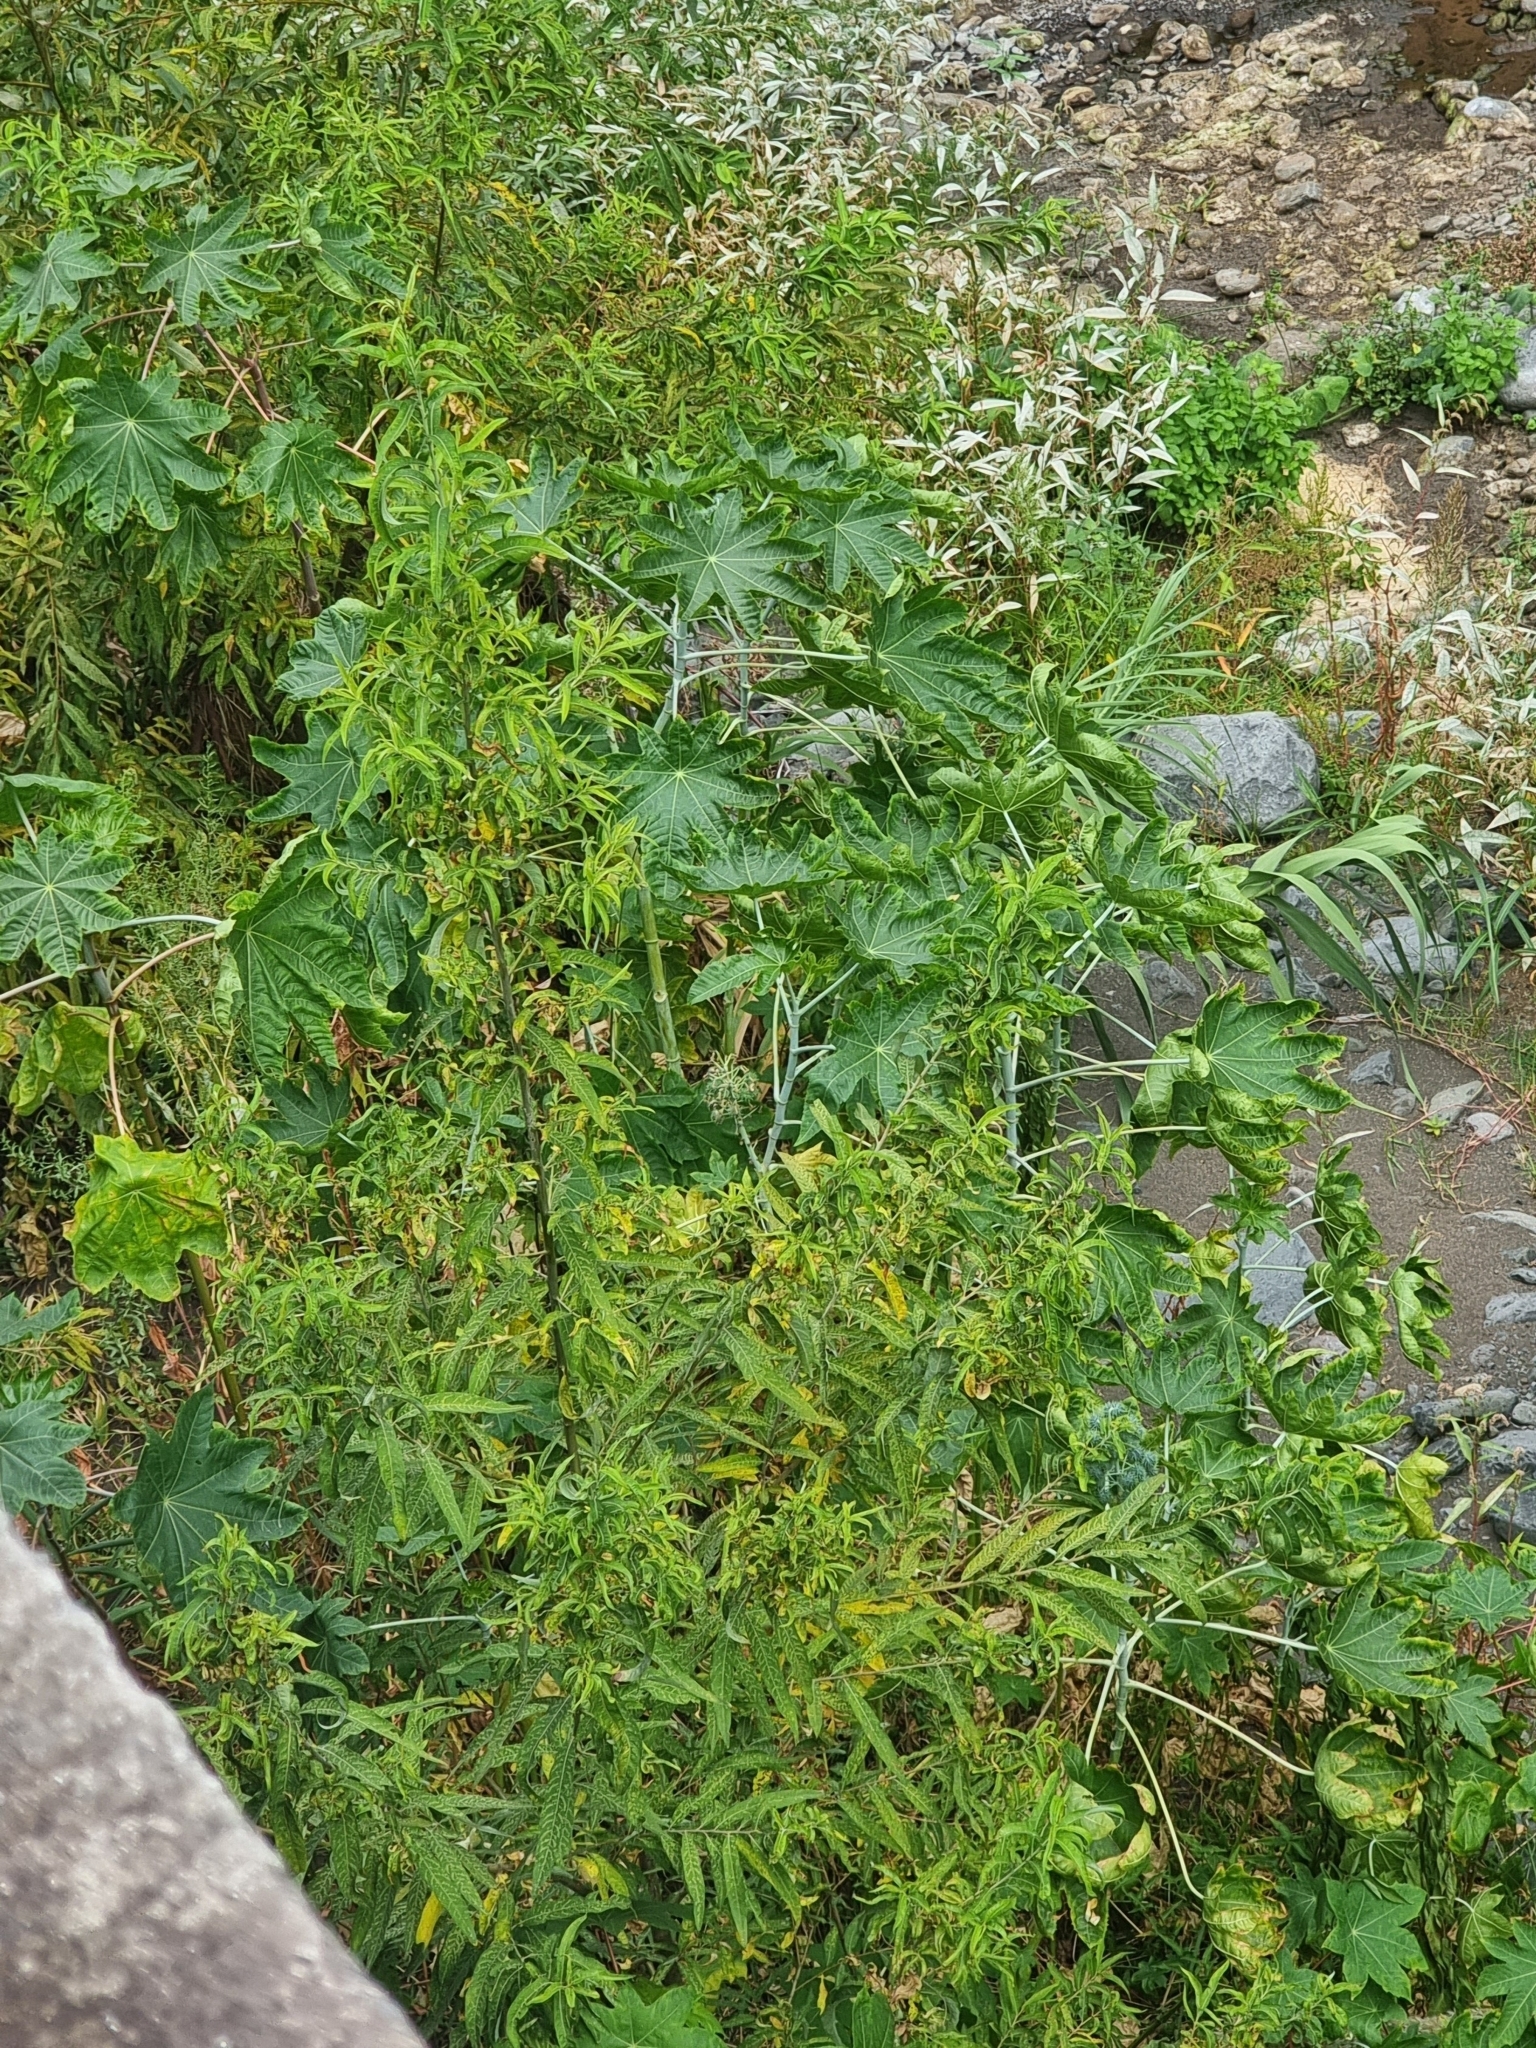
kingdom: Plantae
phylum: Tracheophyta
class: Magnoliopsida
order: Malpighiales
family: Euphorbiaceae
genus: Ricinus
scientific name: Ricinus communis
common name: Castor-oil-plant
